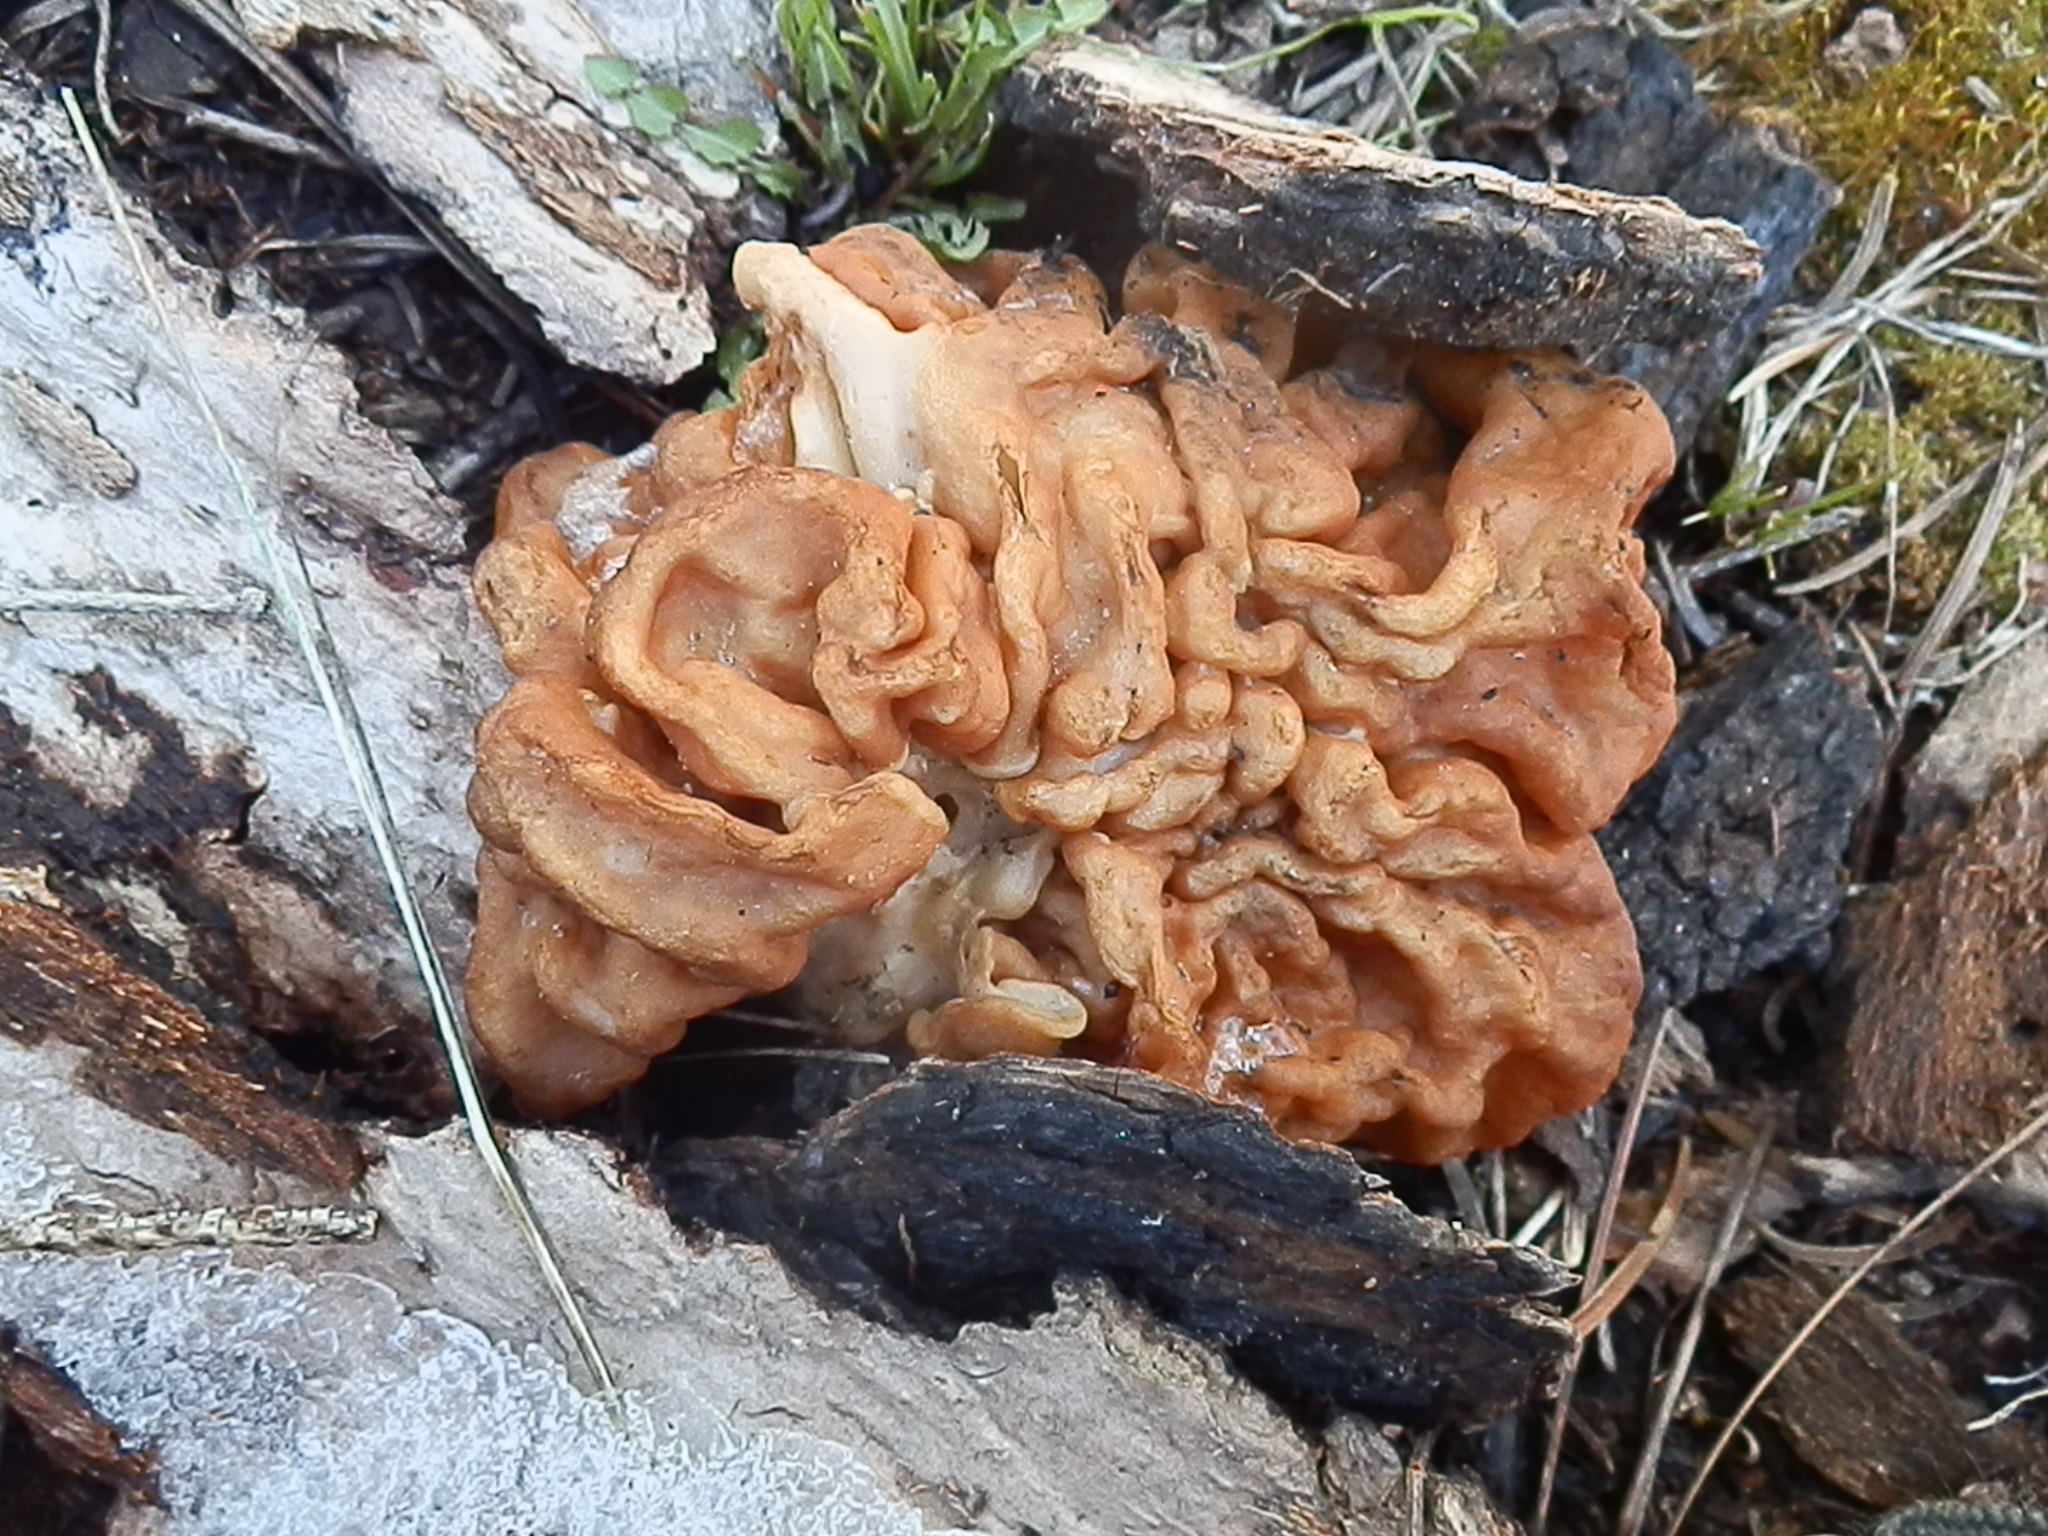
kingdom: Fungi
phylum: Ascomycota
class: Pezizomycetes
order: Pezizales
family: Discinaceae
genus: Discina
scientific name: Discina montana
